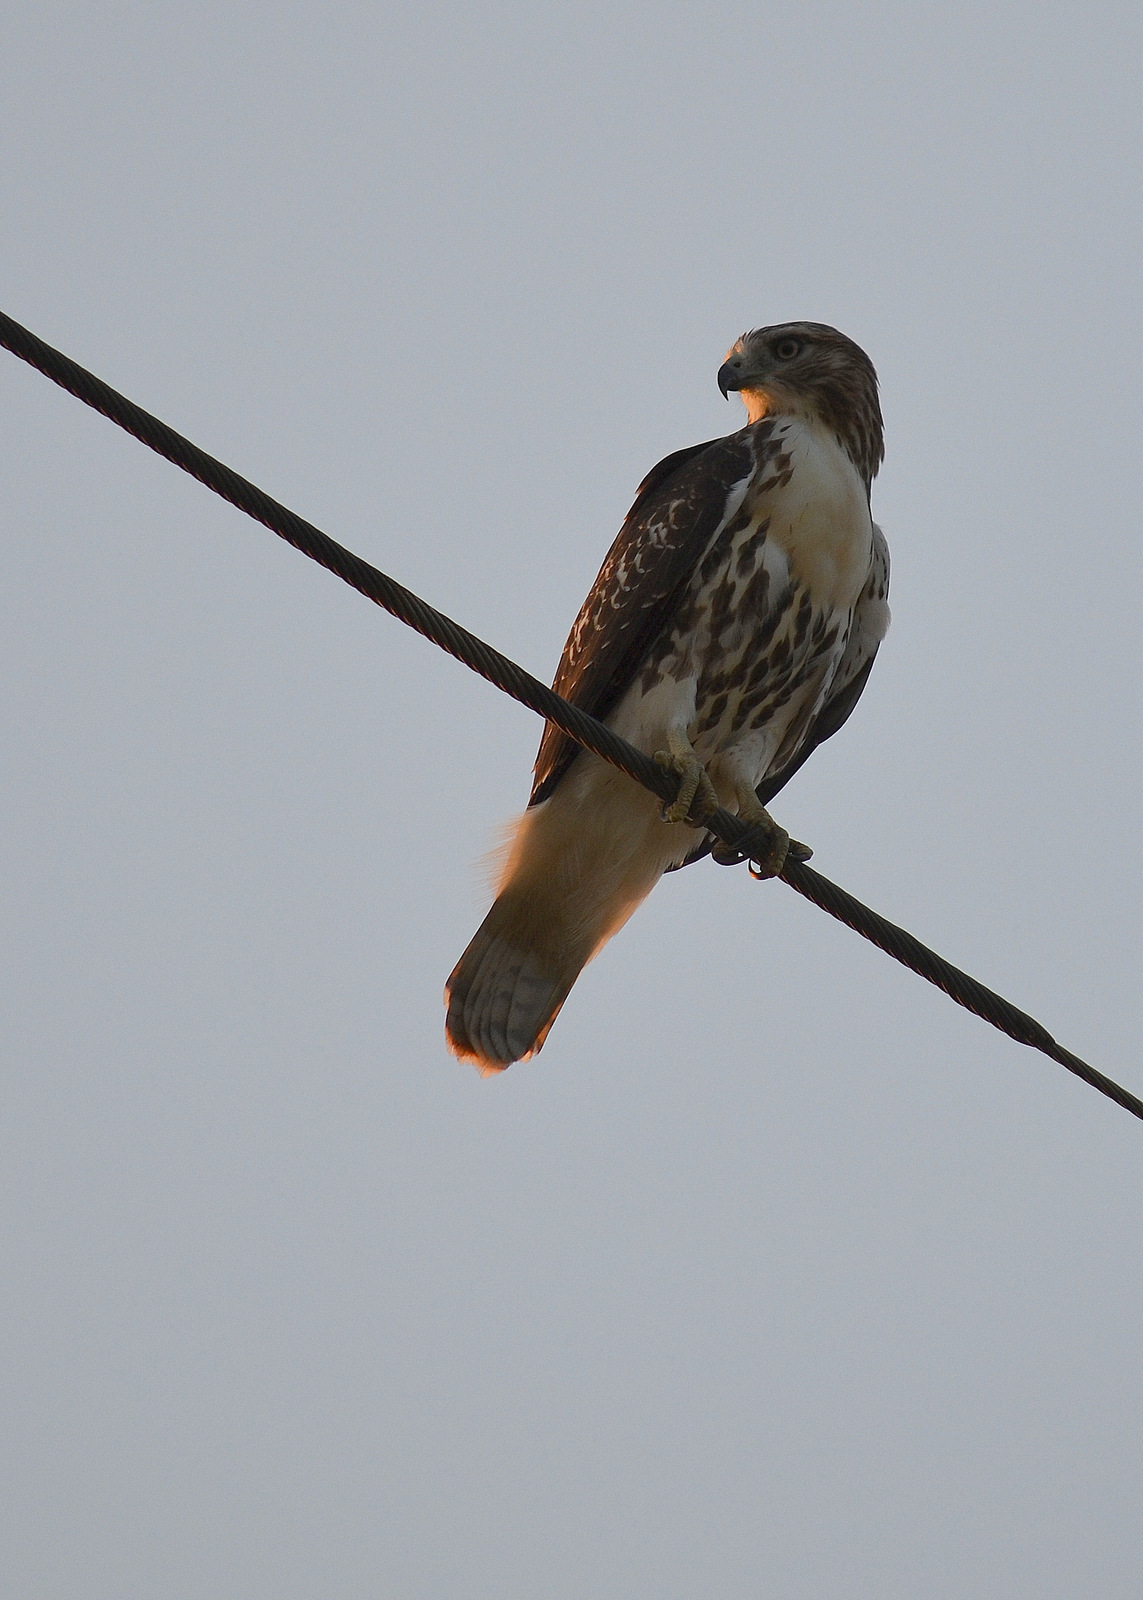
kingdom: Animalia
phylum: Chordata
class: Aves
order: Accipitriformes
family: Accipitridae
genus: Buteo
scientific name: Buteo jamaicensis
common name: Red-tailed hawk
